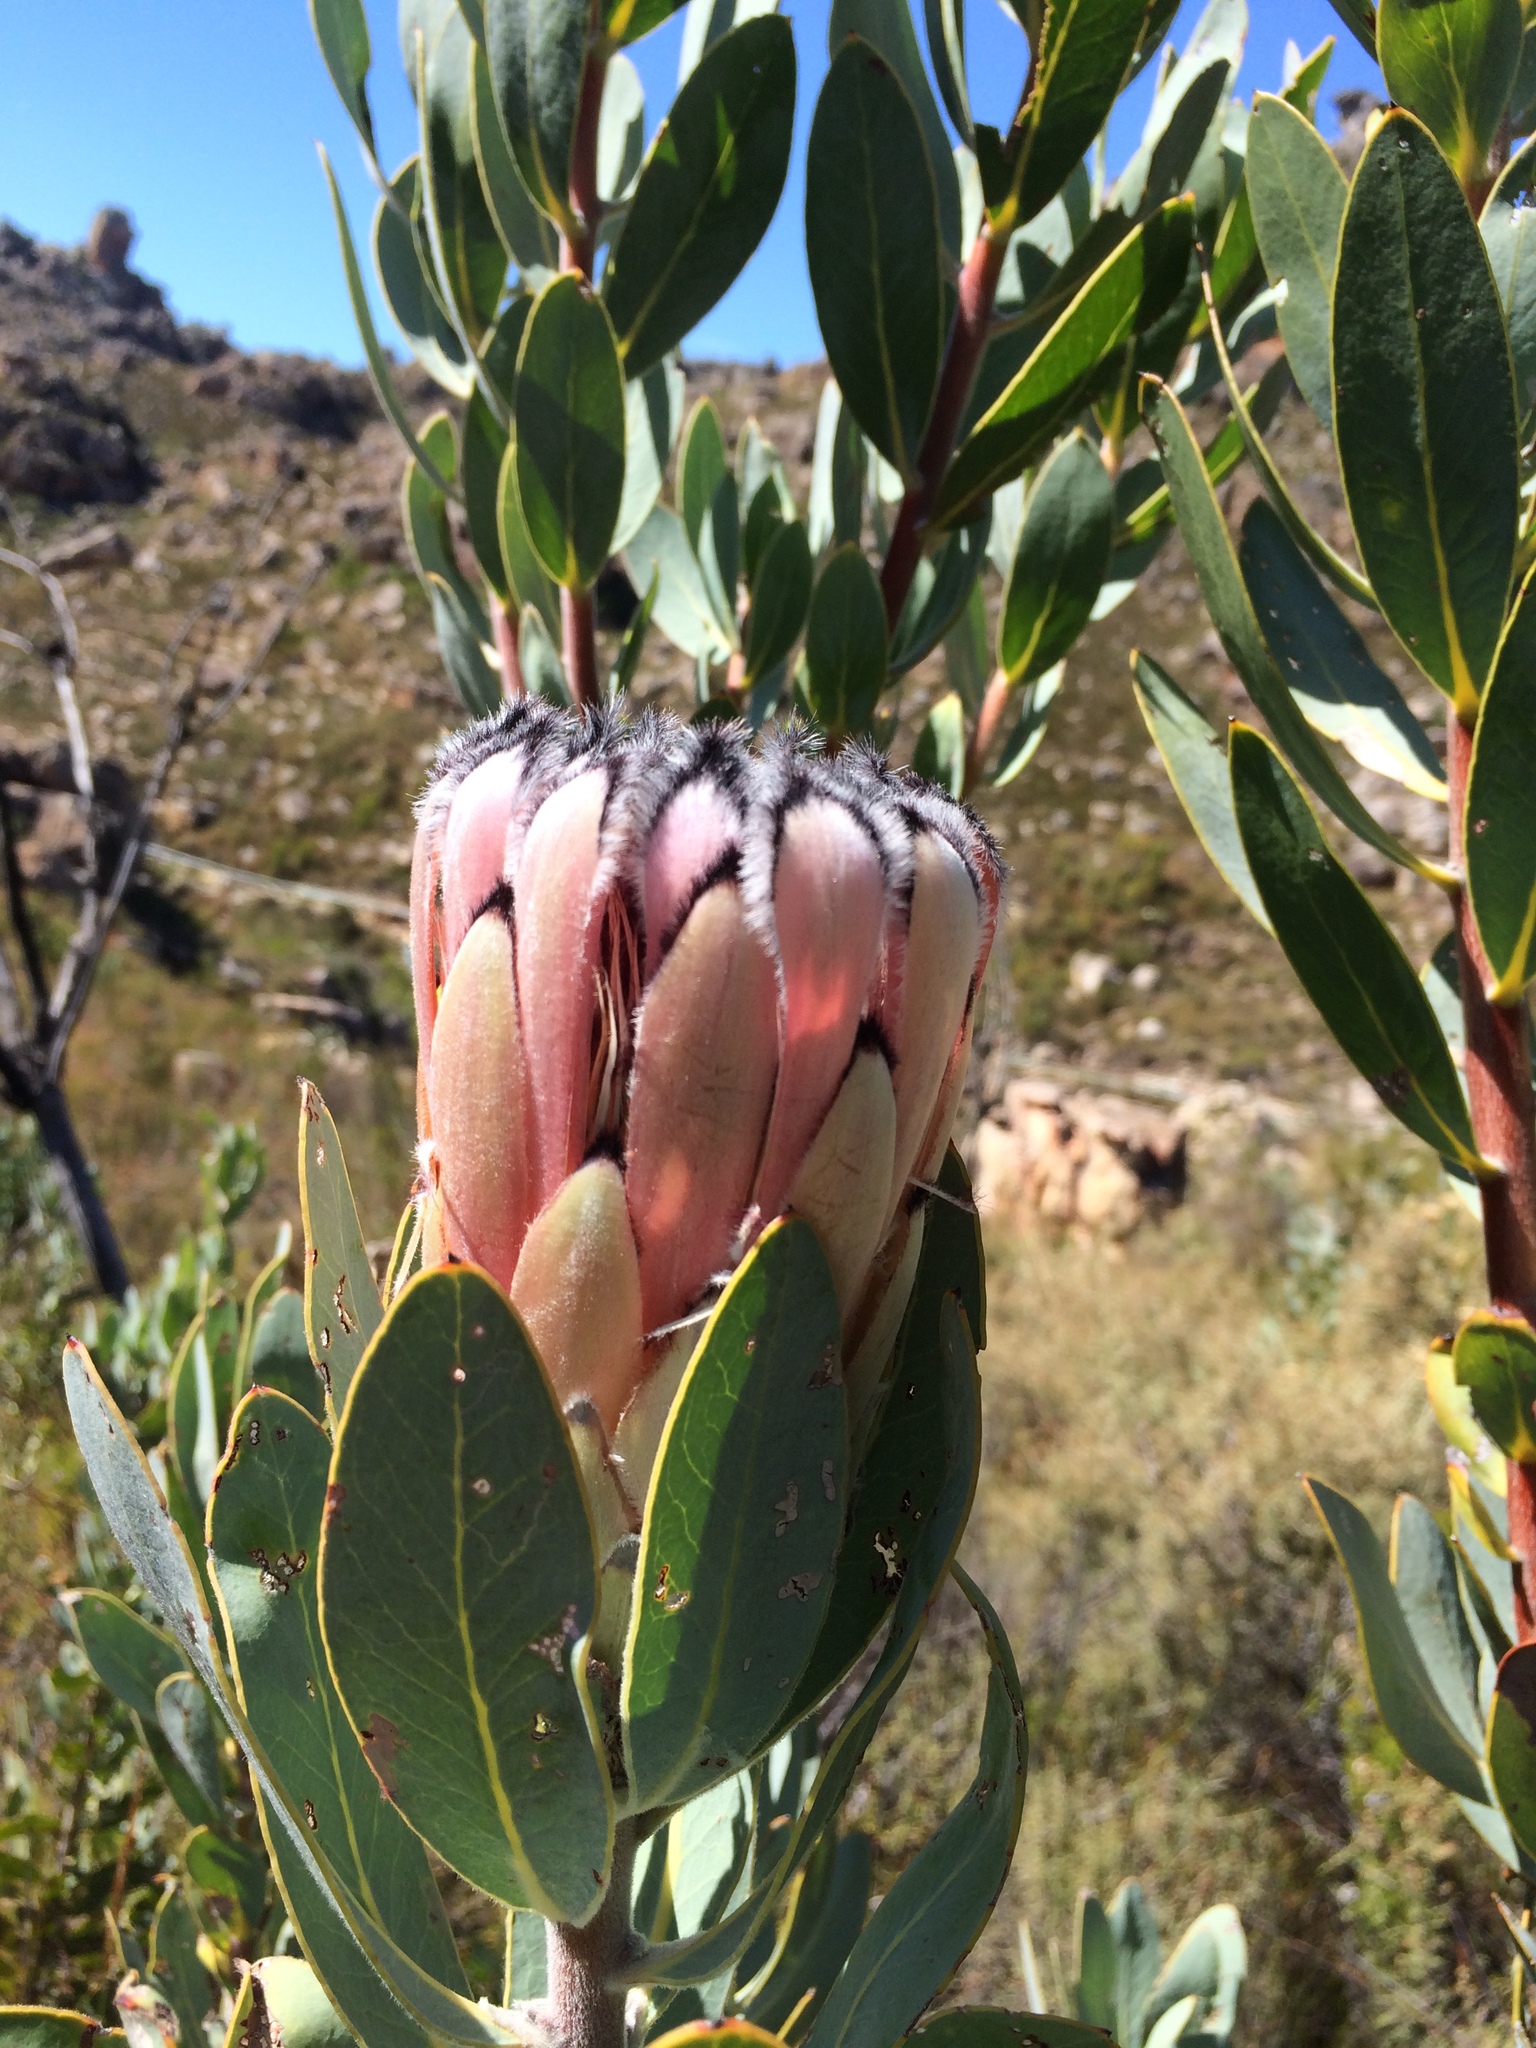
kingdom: Plantae
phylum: Tracheophyta
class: Magnoliopsida
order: Proteales
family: Proteaceae
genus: Protea
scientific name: Protea laurifolia
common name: Grey-leaf sugarbsh
